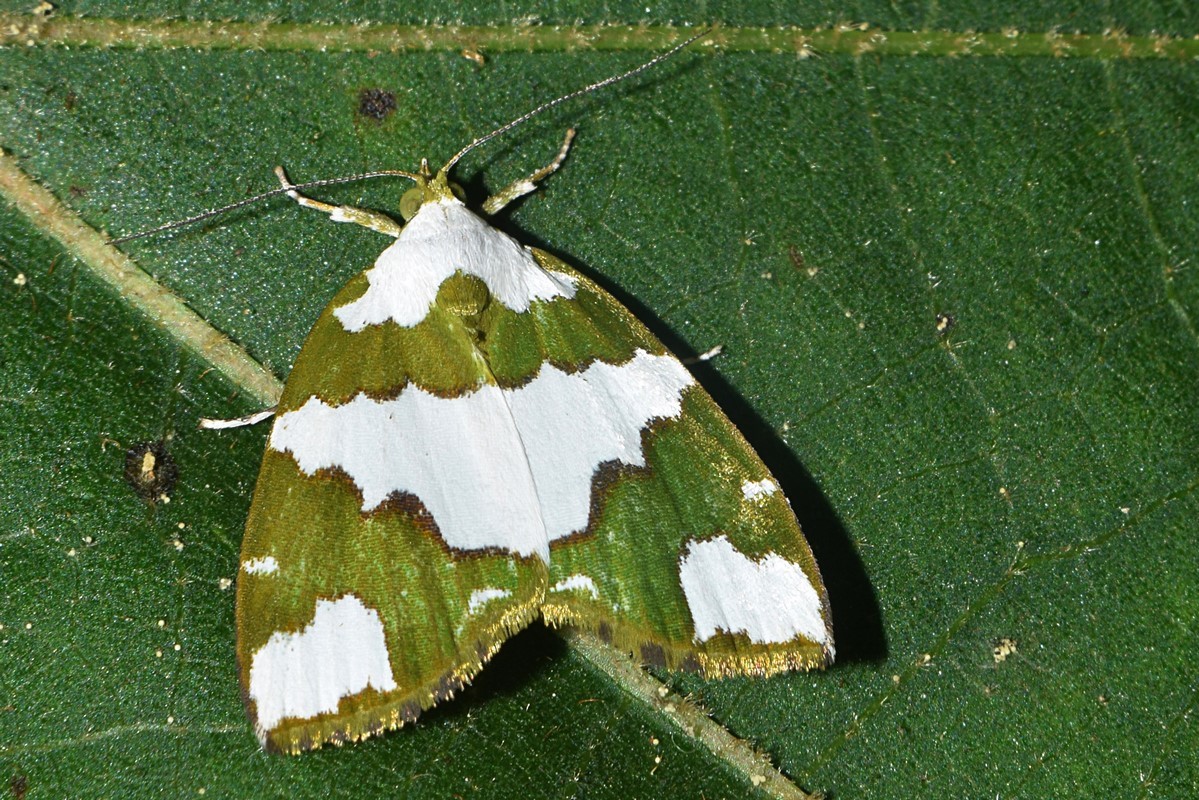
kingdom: Animalia
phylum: Arthropoda
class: Insecta
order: Lepidoptera
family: Nolidae
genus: Ariolica
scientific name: Ariolica pulchella
